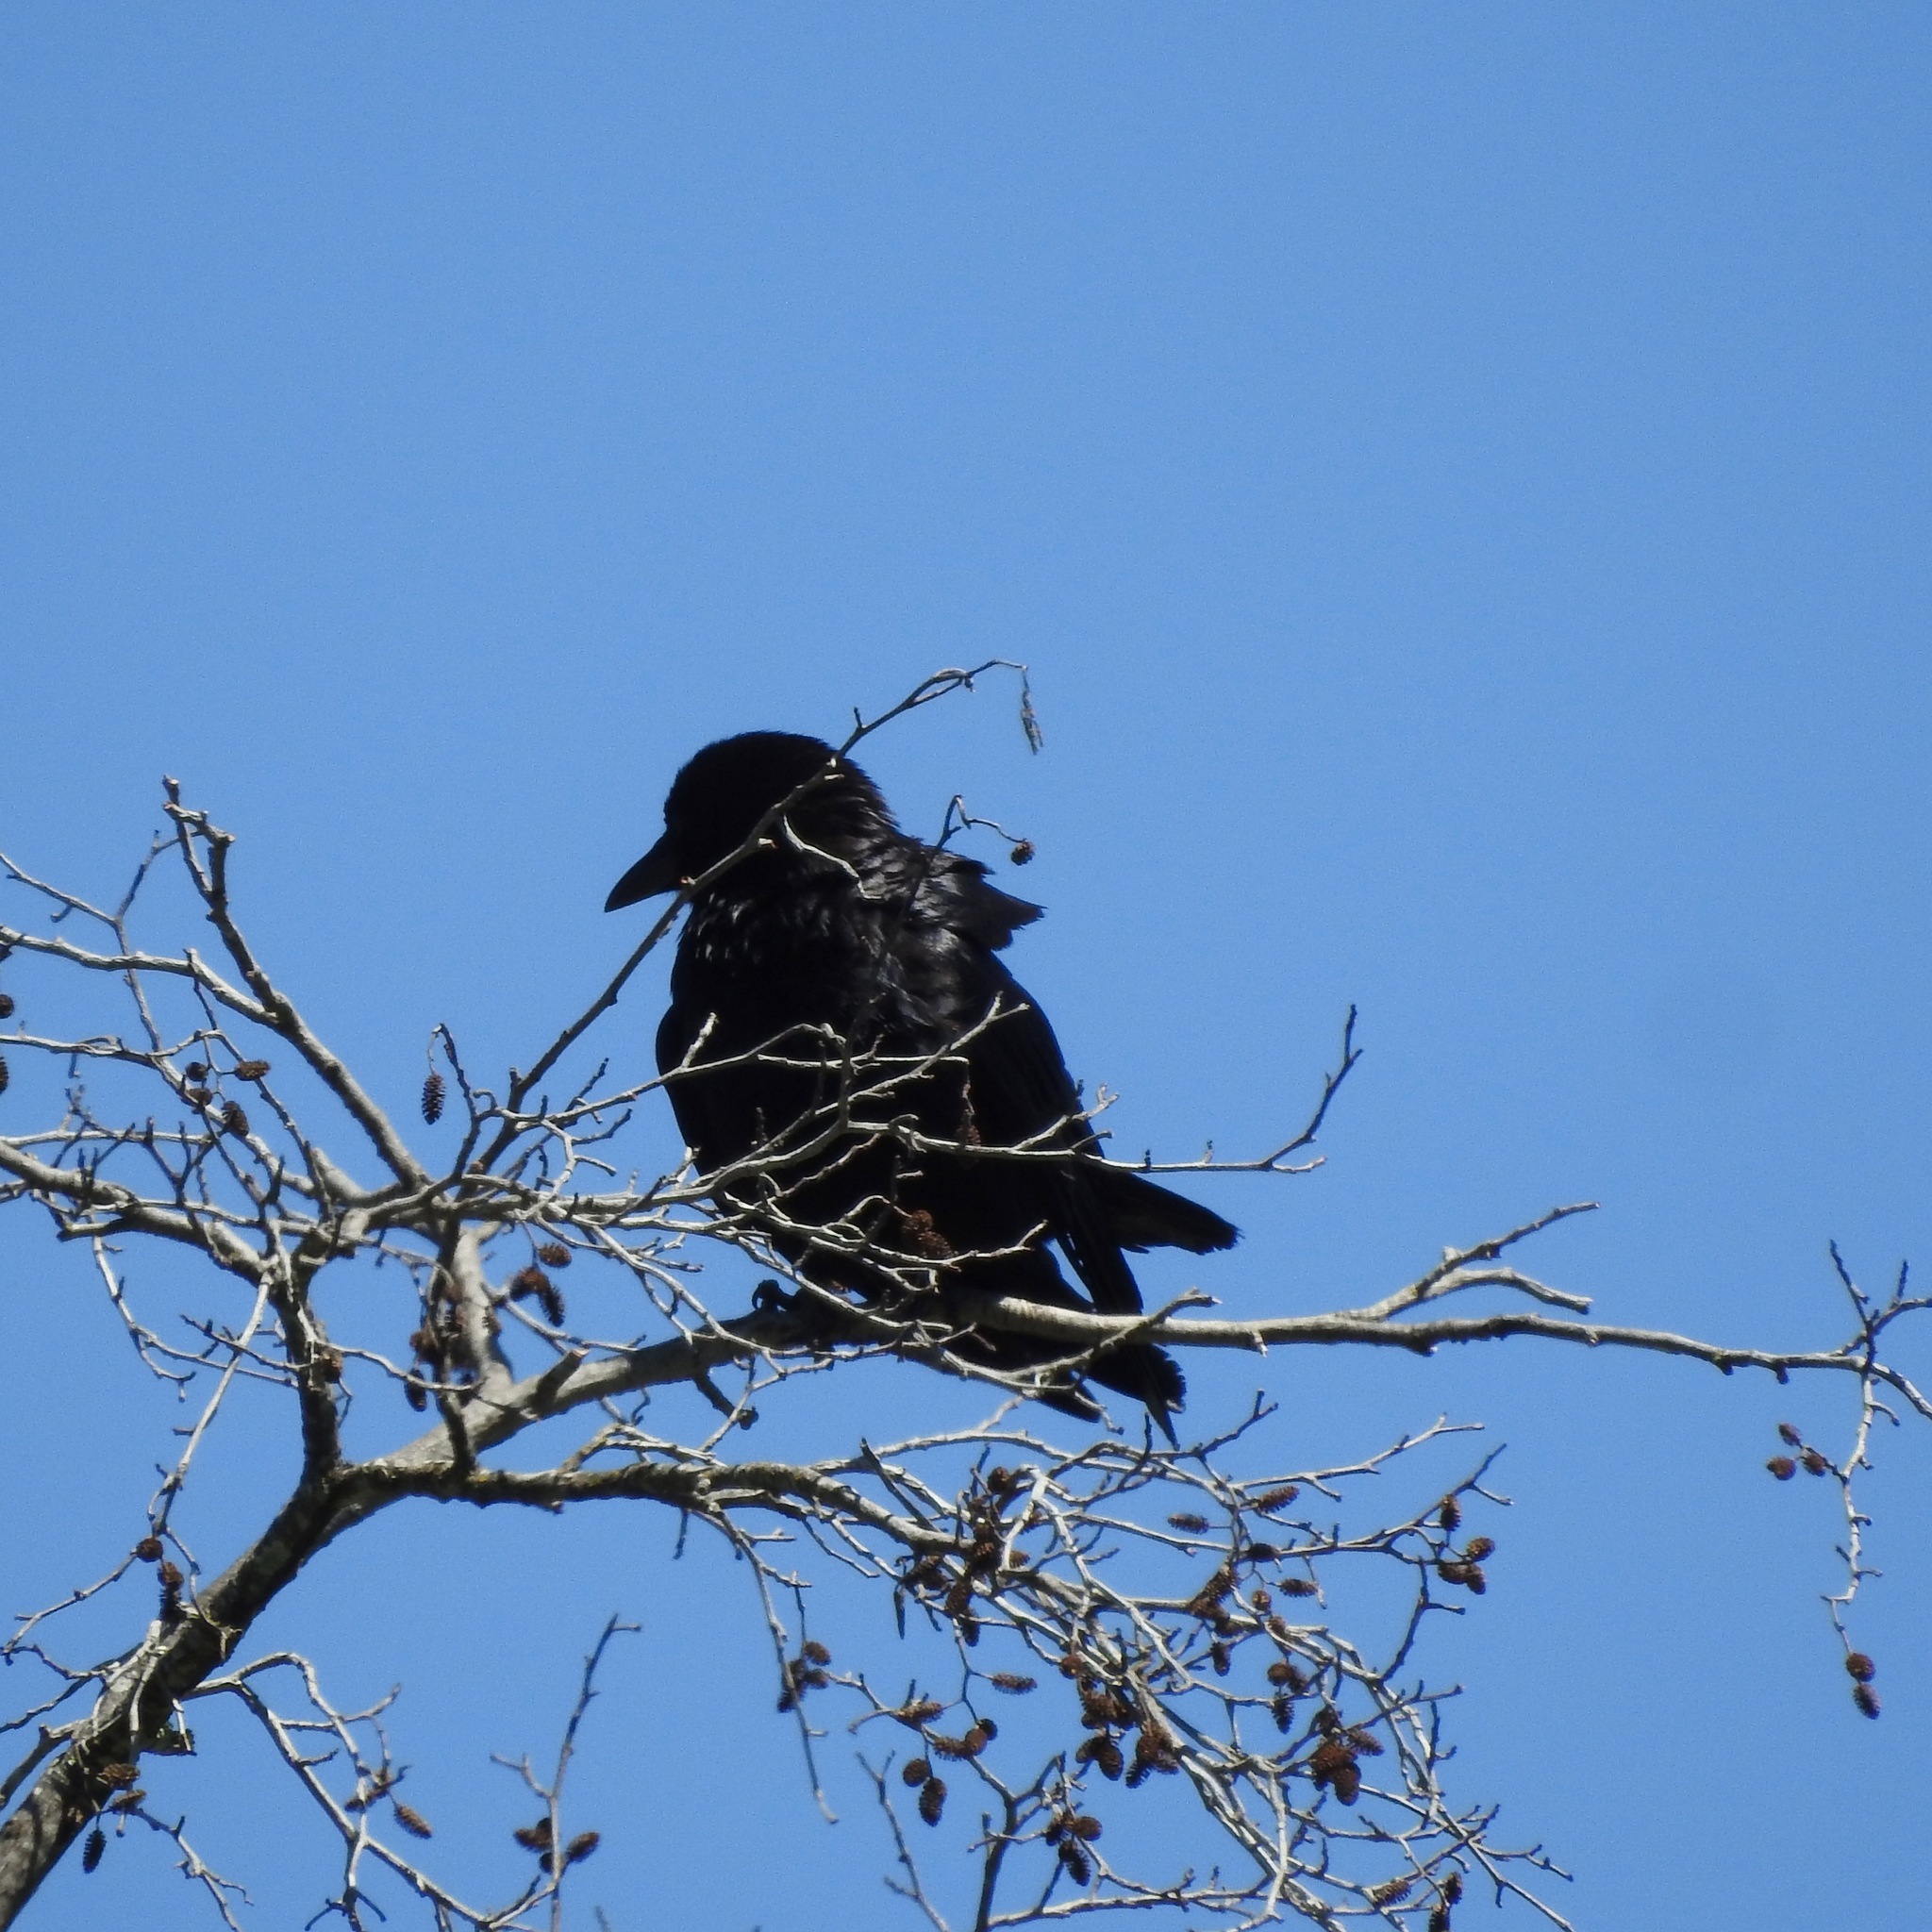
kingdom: Animalia
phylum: Chordata
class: Aves
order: Passeriformes
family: Corvidae
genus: Corvus
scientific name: Corvus corax
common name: Common raven
